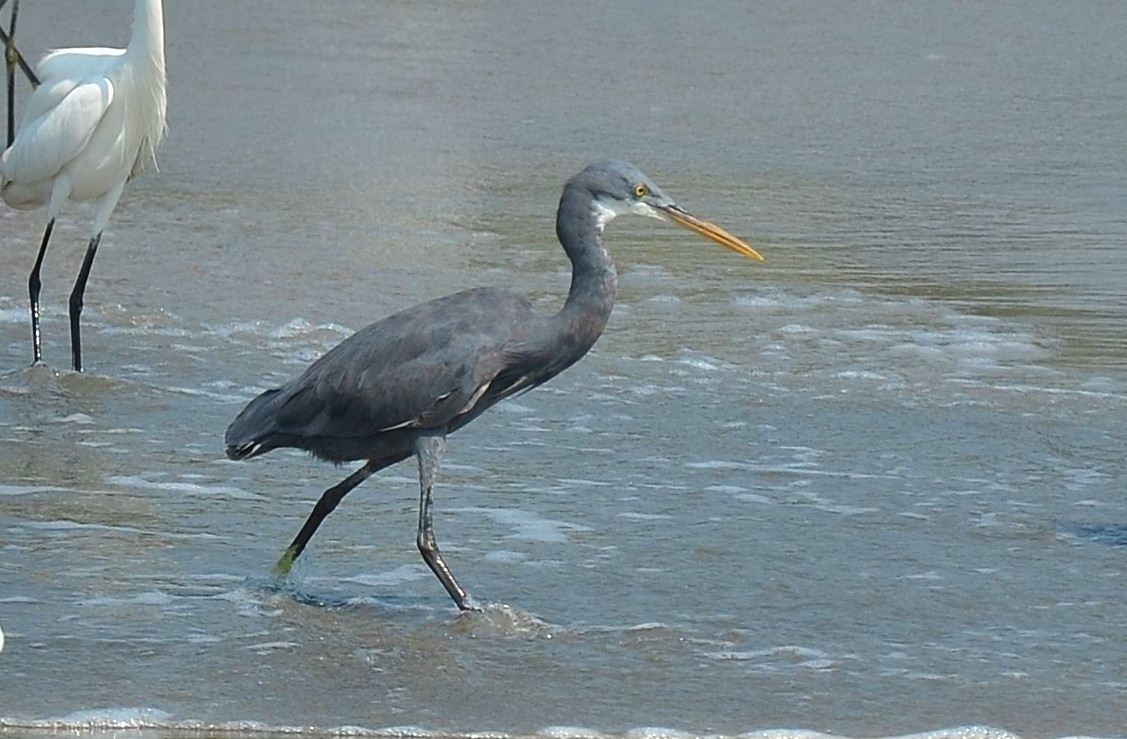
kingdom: Animalia
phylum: Chordata
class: Aves
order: Pelecaniformes
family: Ardeidae
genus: Egretta
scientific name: Egretta gularis
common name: Western reef-heron
